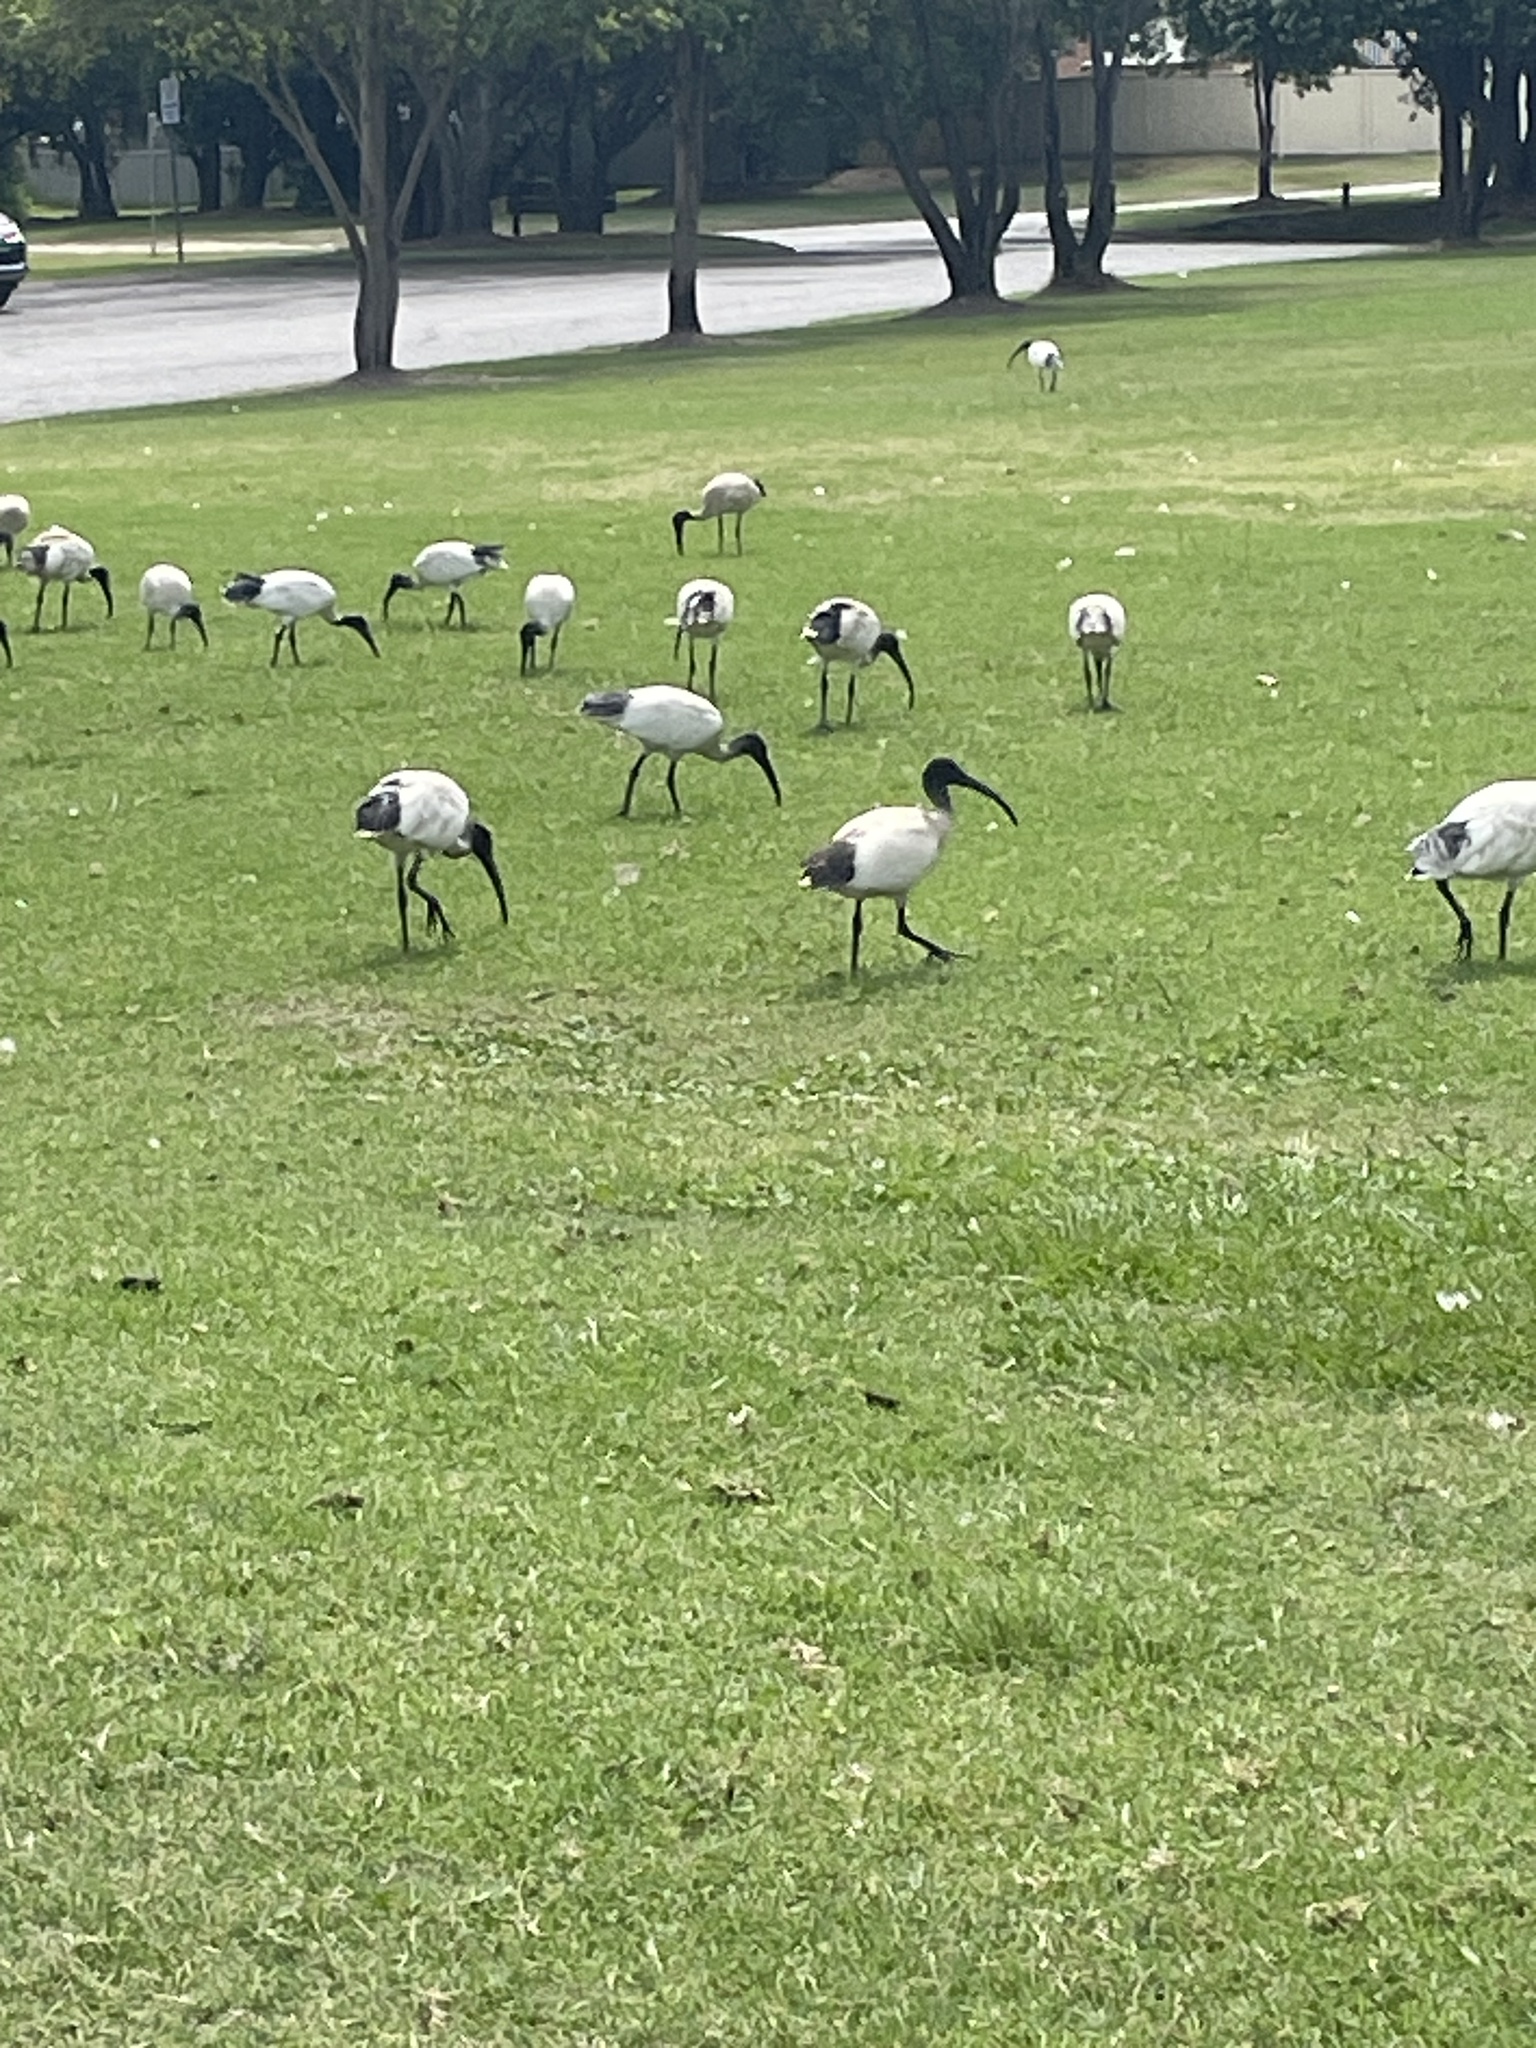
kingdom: Animalia
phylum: Chordata
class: Aves
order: Pelecaniformes
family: Threskiornithidae
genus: Threskiornis
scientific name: Threskiornis molucca
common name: Australian white ibis
